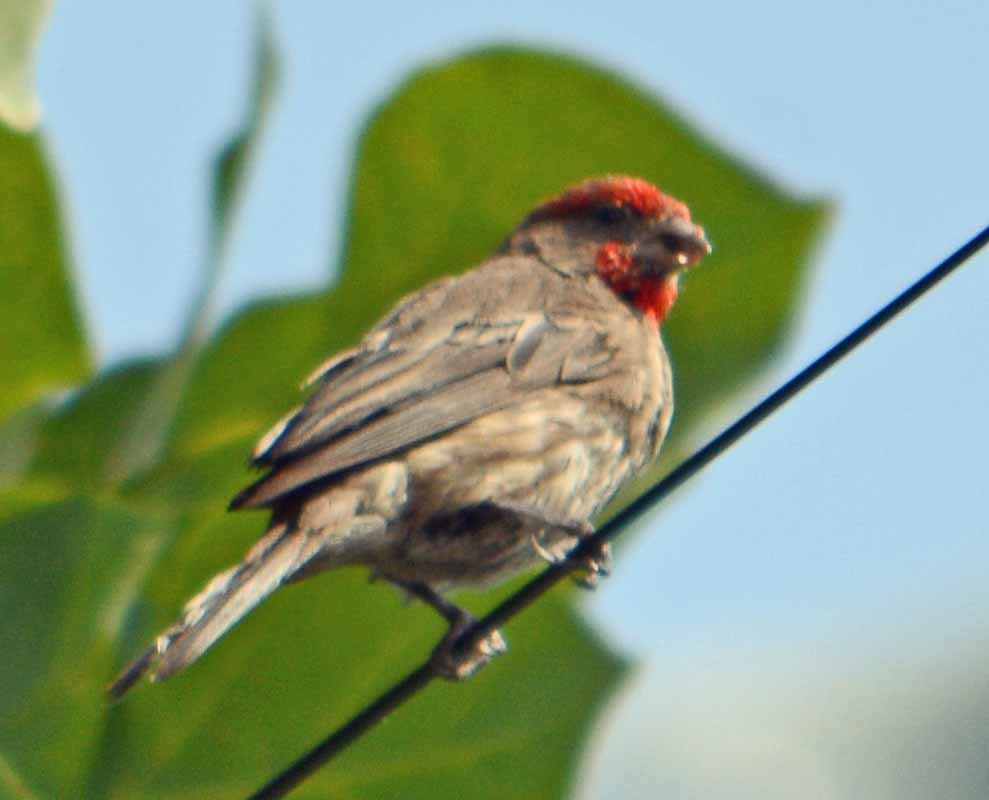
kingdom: Animalia
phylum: Chordata
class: Aves
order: Passeriformes
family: Fringillidae
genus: Haemorhous
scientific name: Haemorhous mexicanus
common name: House finch
